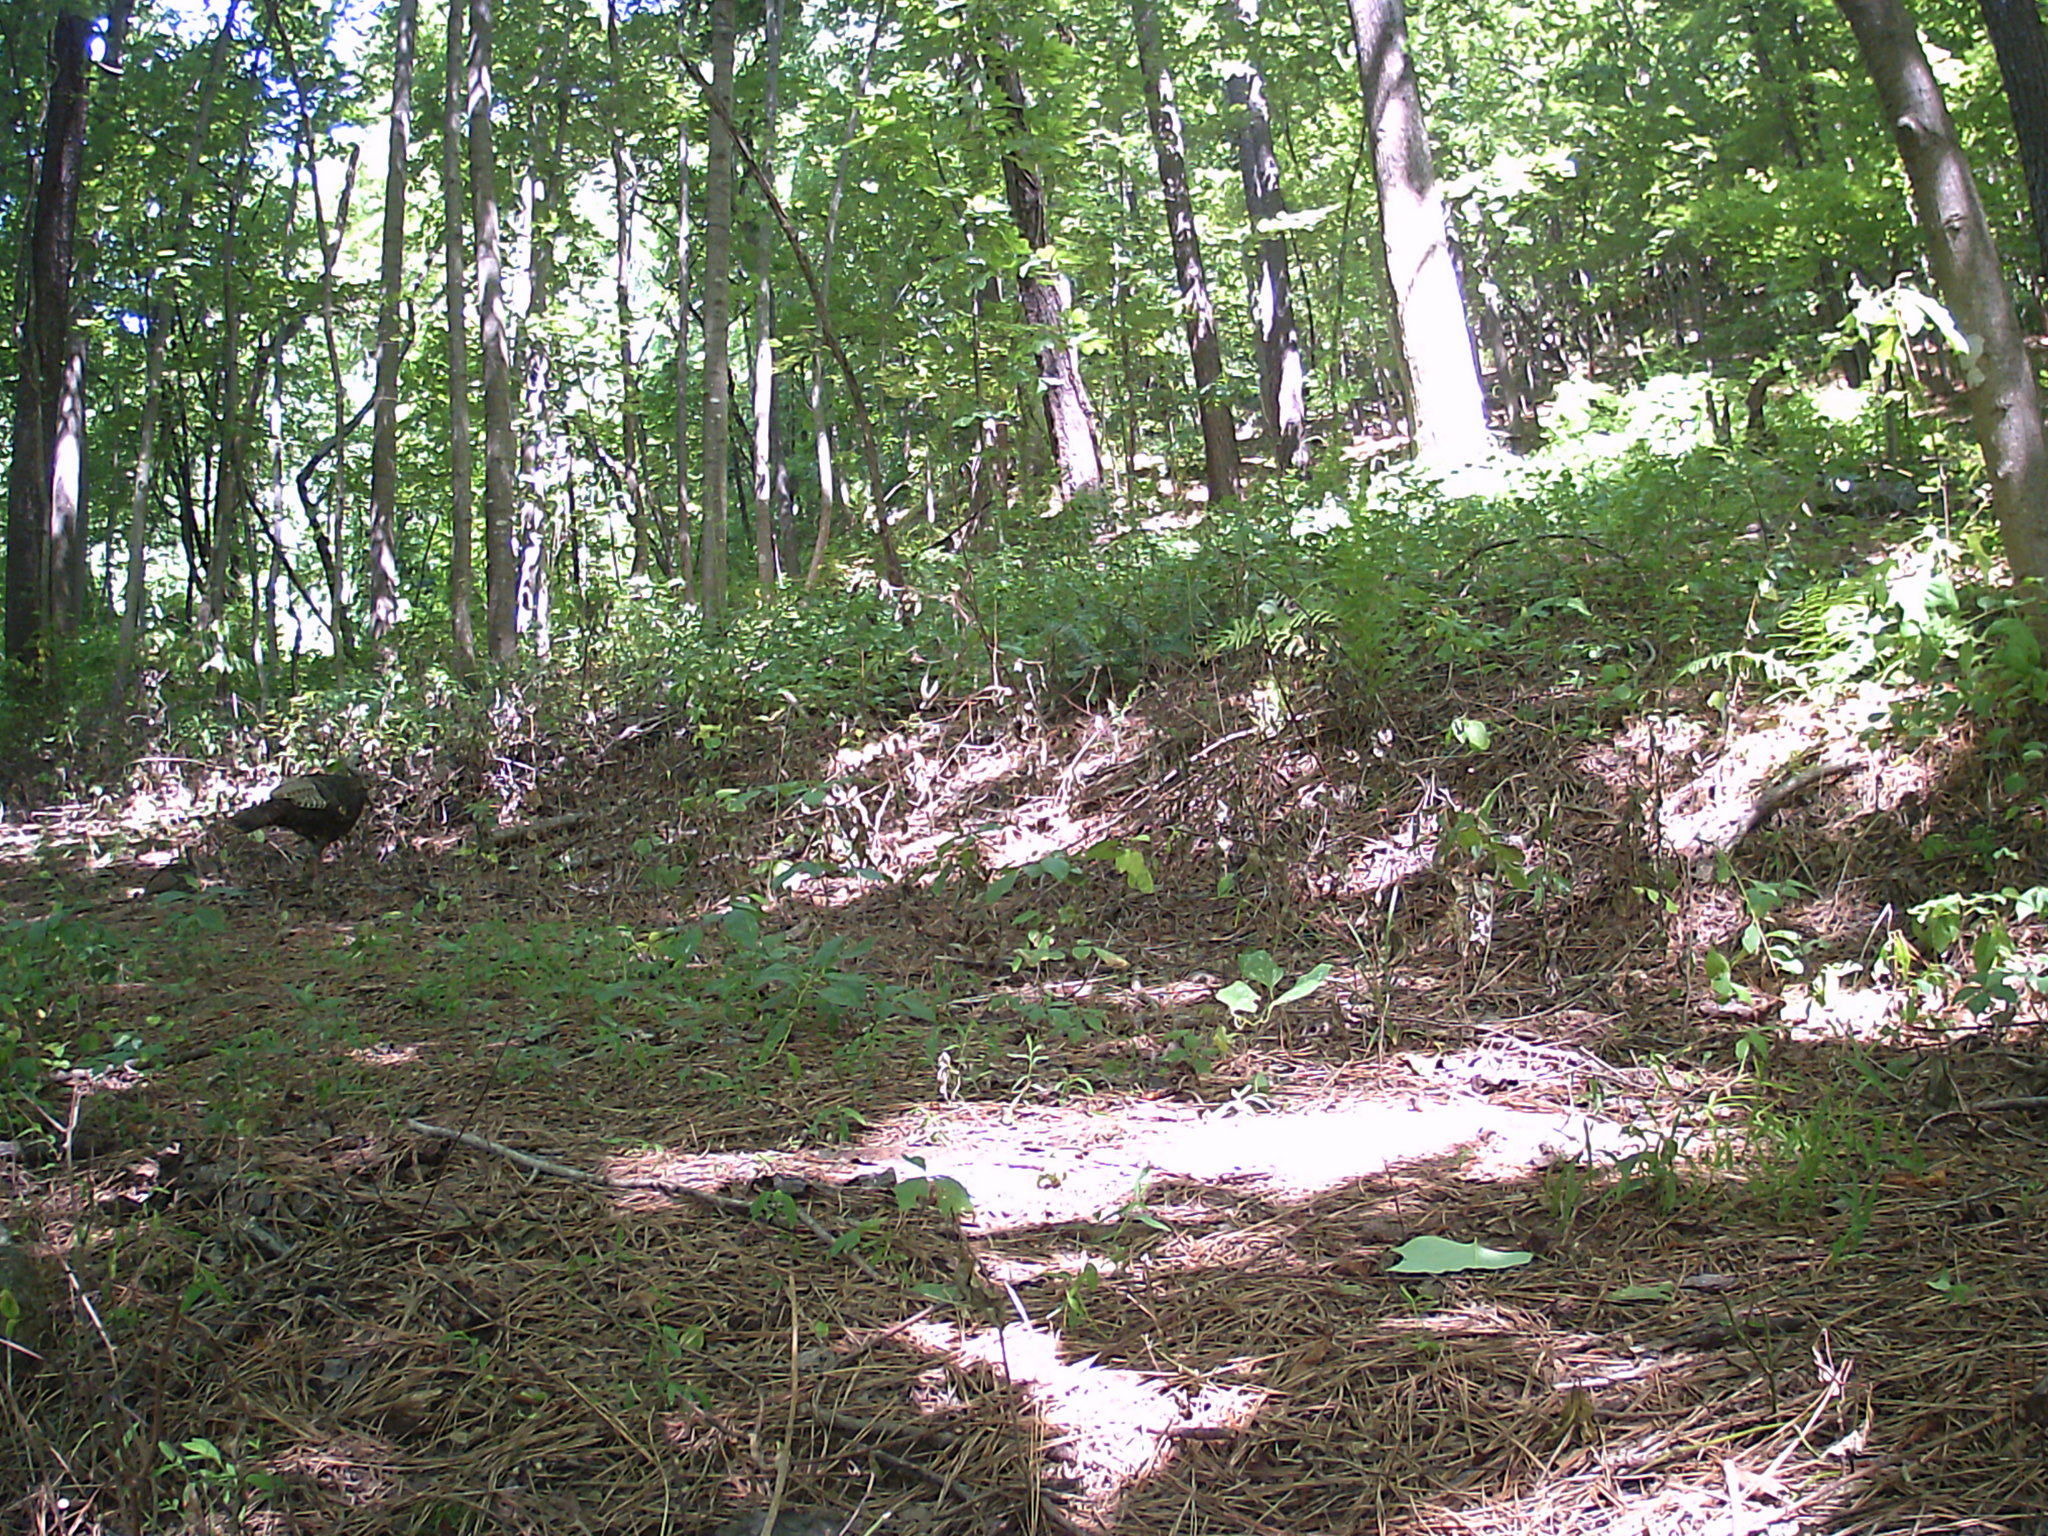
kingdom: Animalia
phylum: Chordata
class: Aves
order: Galliformes
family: Phasianidae
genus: Meleagris
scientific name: Meleagris gallopavo
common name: Wild turkey
